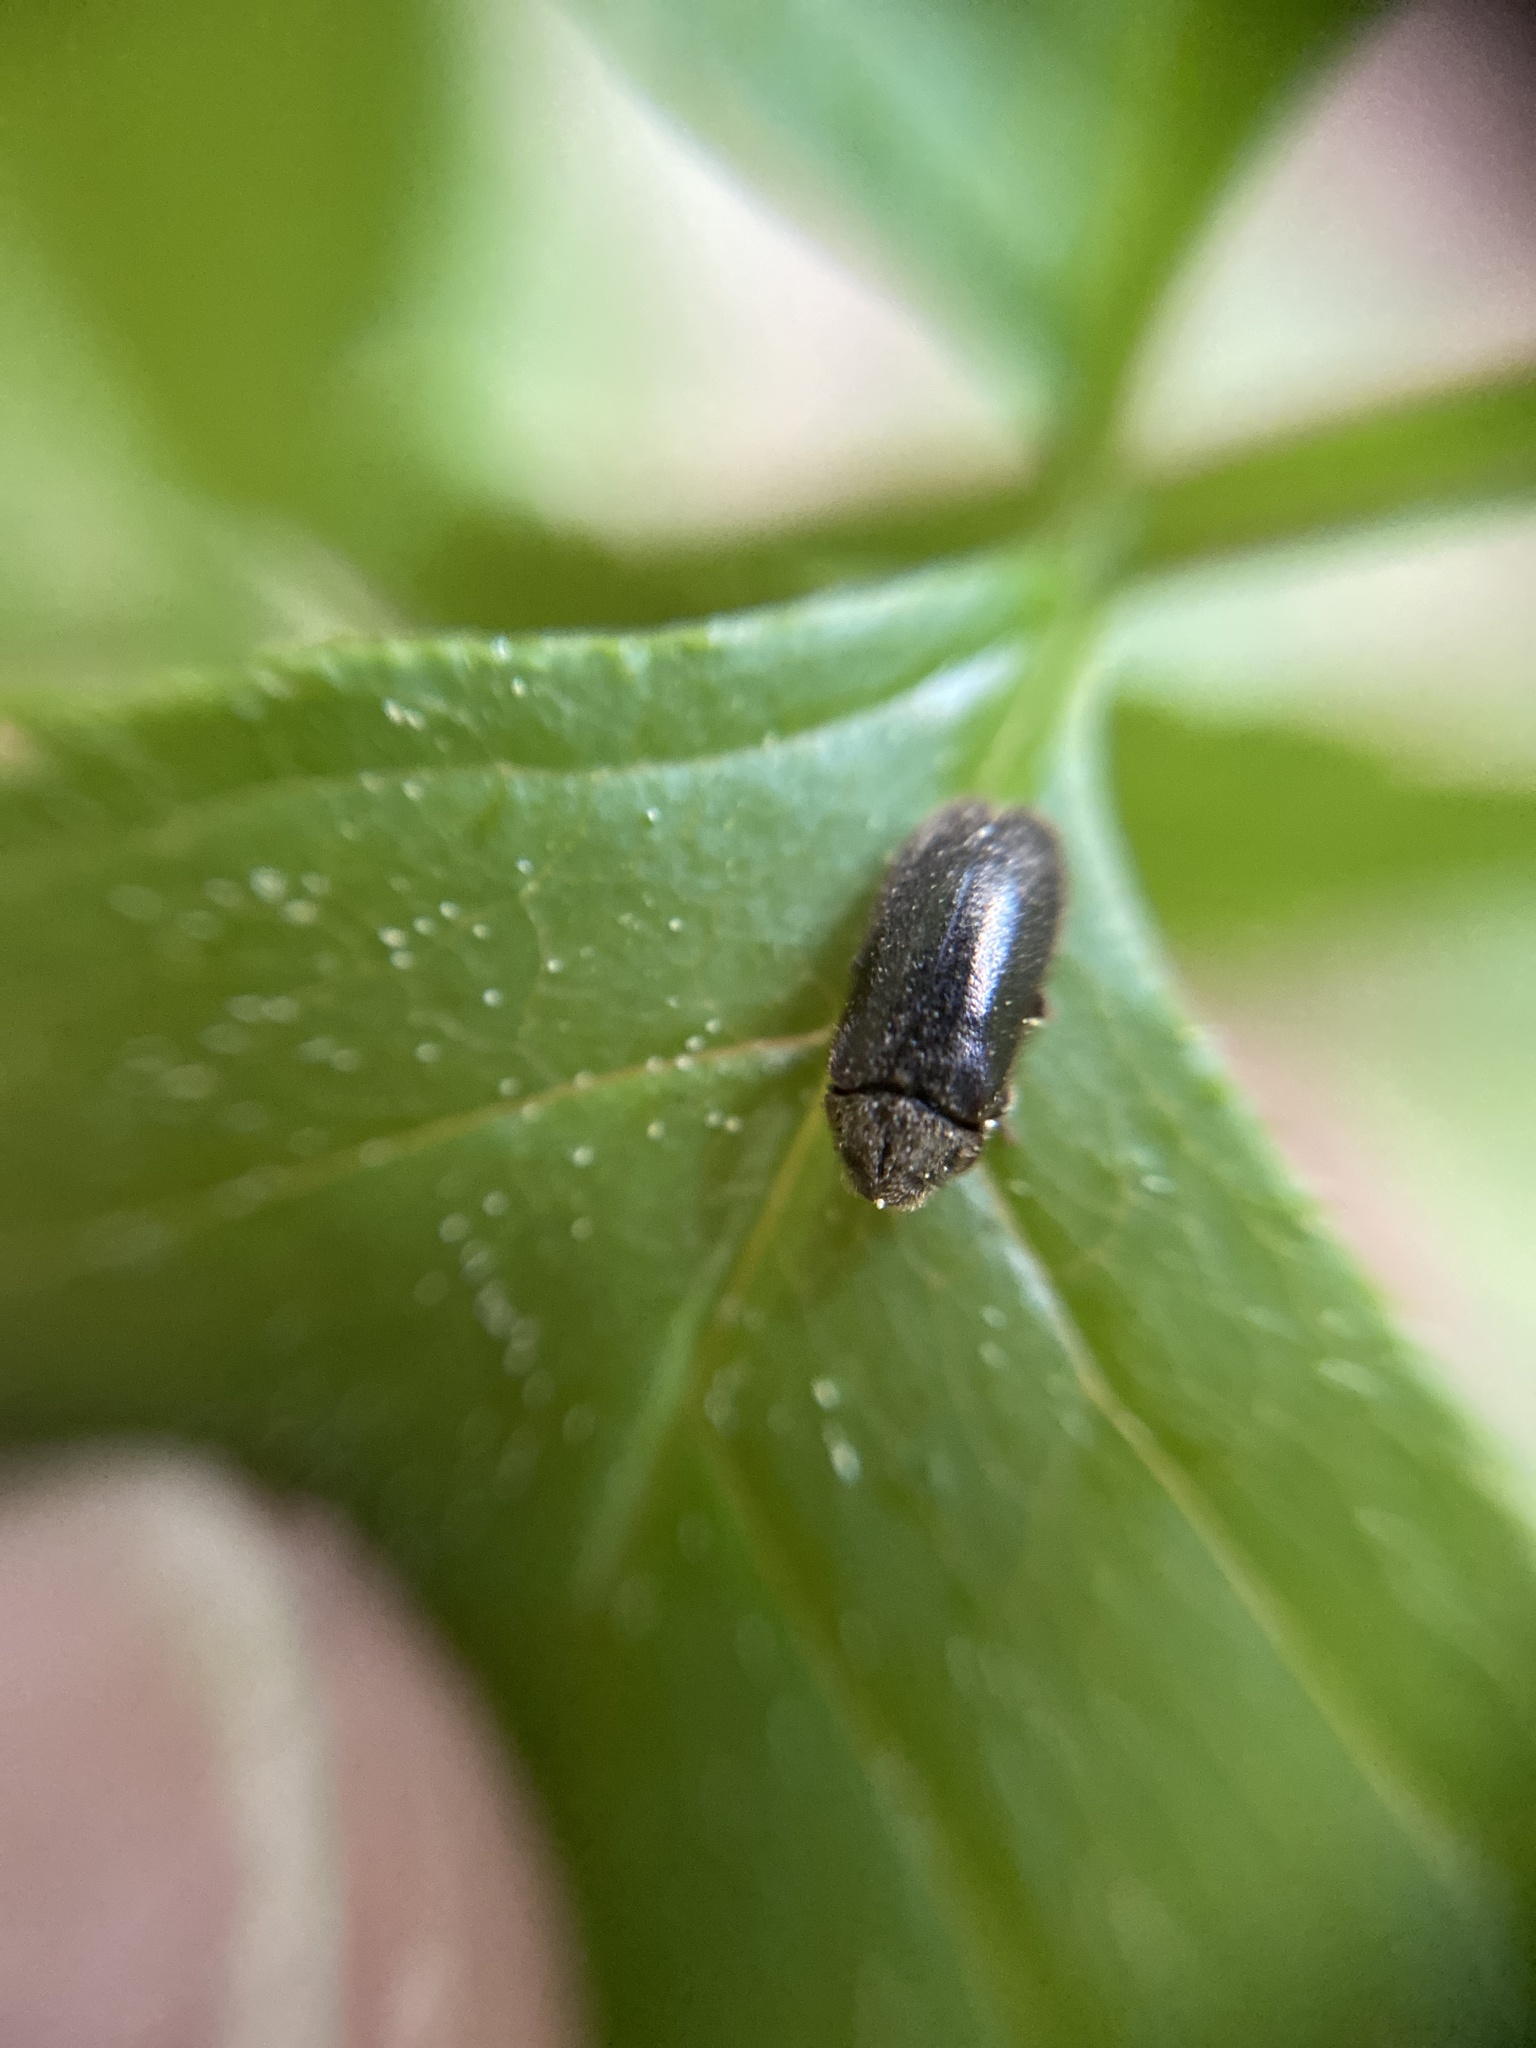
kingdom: Animalia
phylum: Arthropoda
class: Insecta
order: Coleoptera
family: Ptinidae
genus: Hyperisus
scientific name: Hyperisus plumbeus
